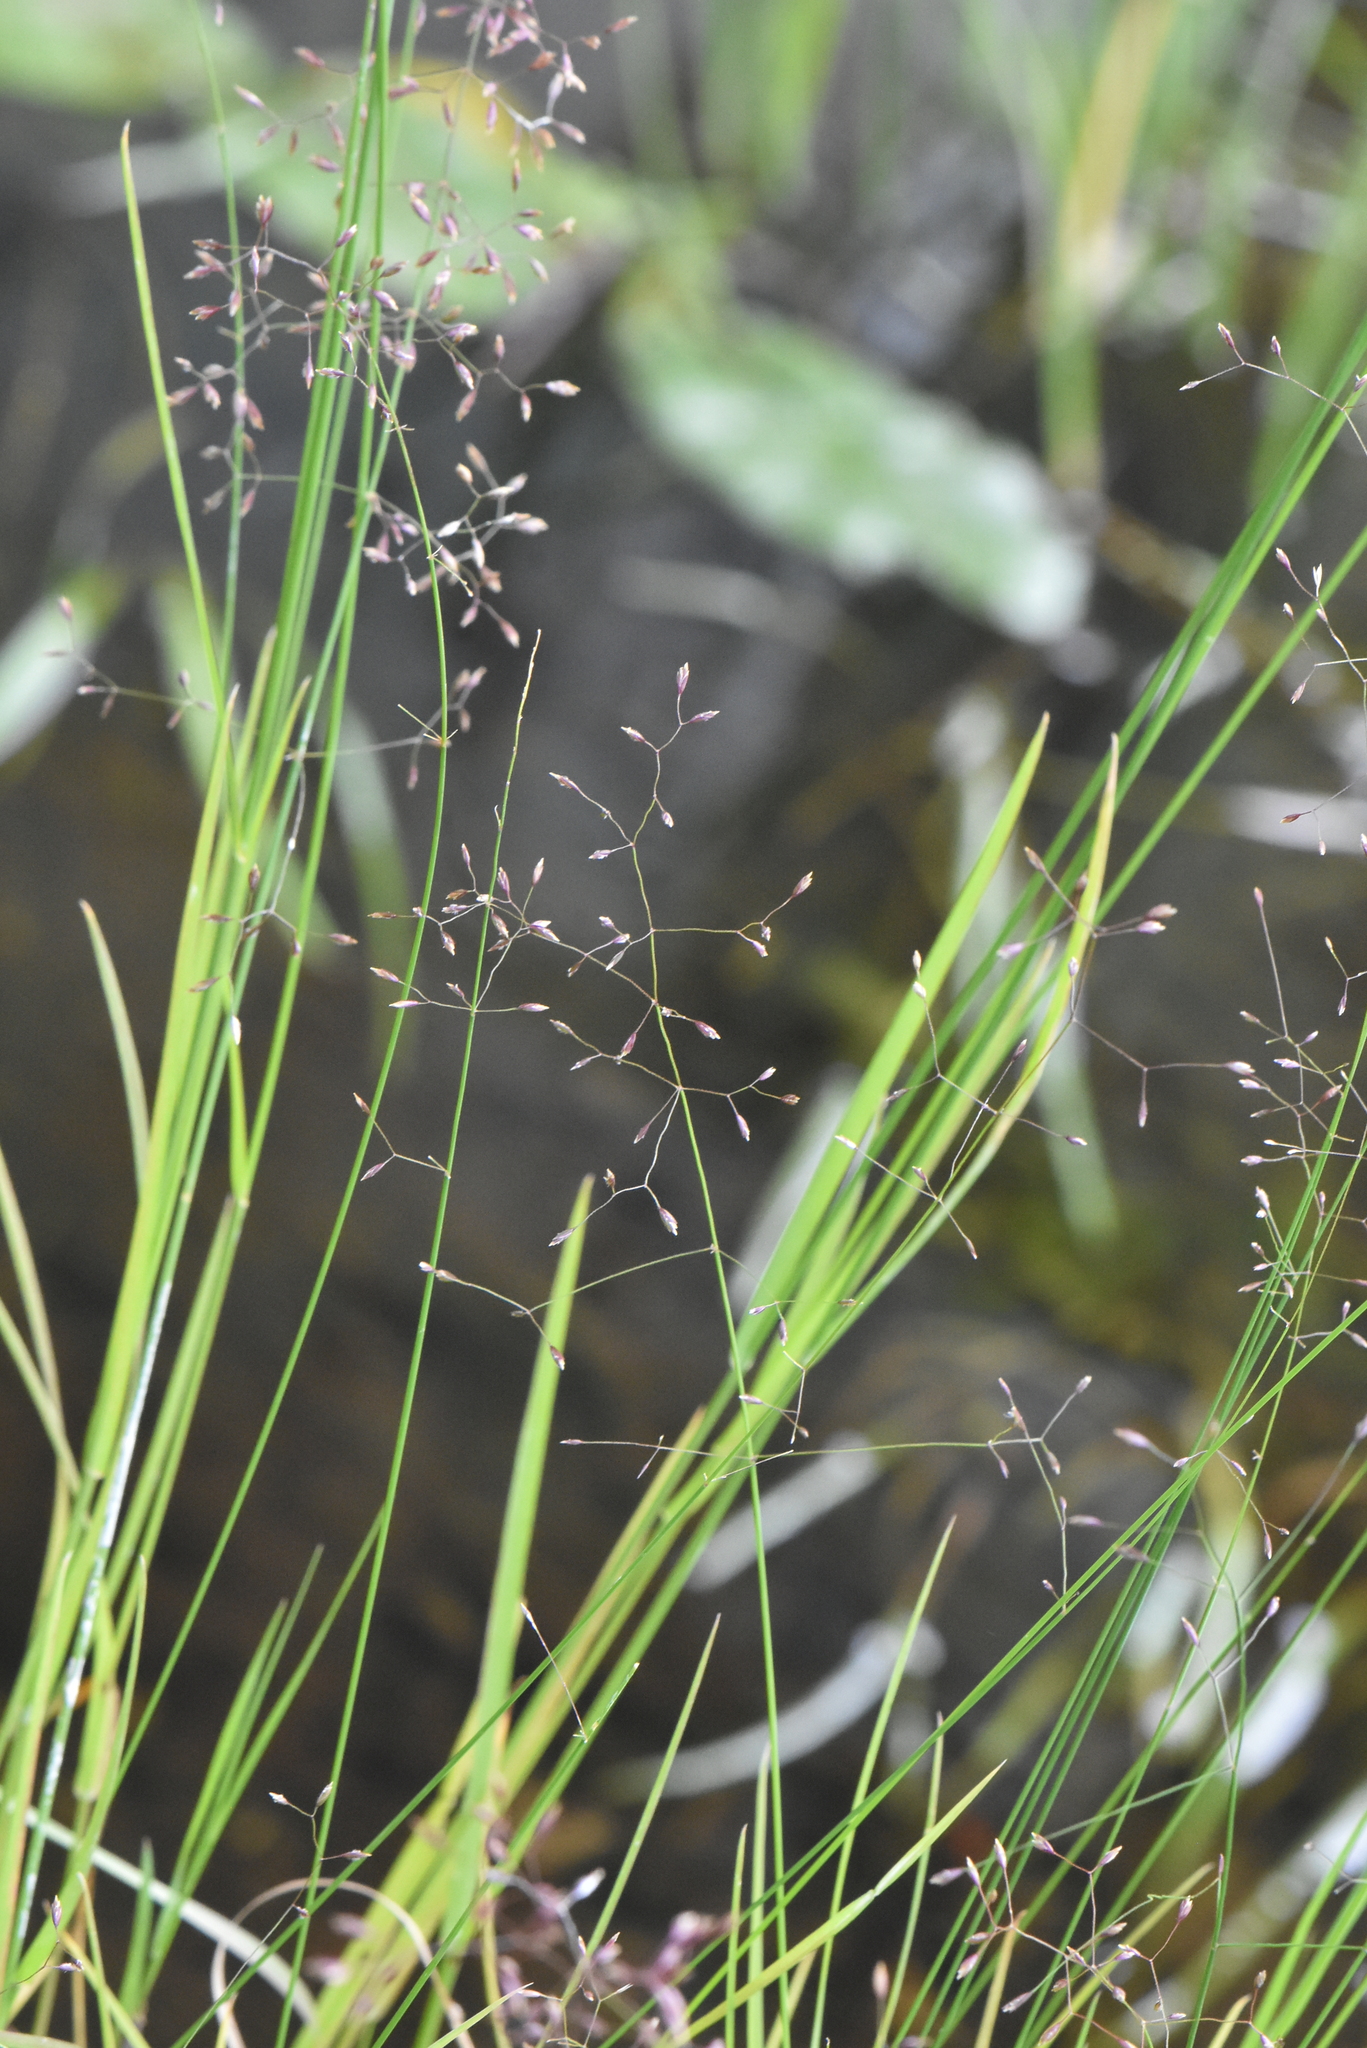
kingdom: Plantae
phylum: Tracheophyta
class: Liliopsida
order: Poales
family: Poaceae
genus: Poa
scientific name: Poa palustris
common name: Swamp meadow-grass
